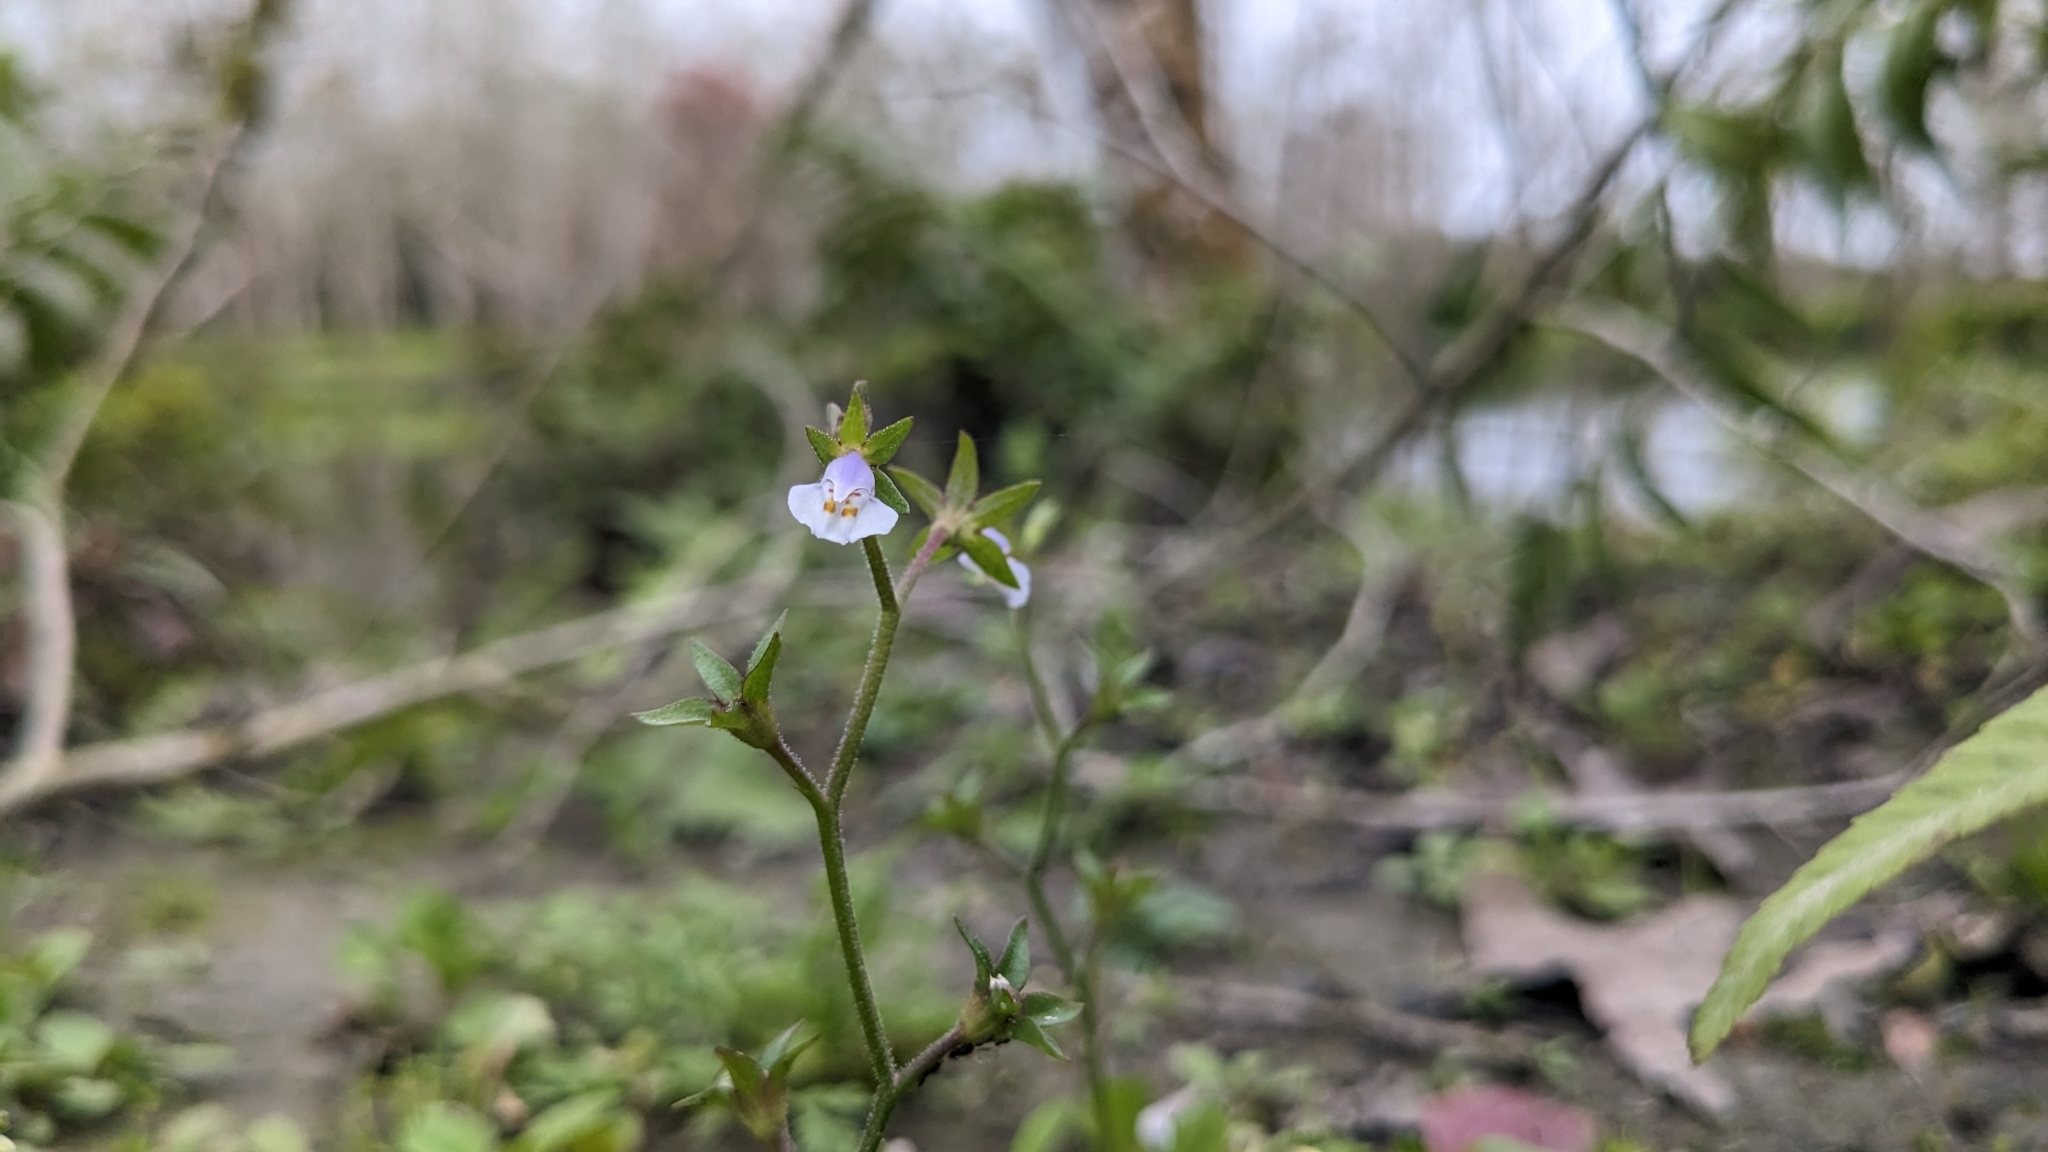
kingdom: Plantae
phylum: Tracheophyta
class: Magnoliopsida
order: Lamiales
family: Mazaceae
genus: Mazus
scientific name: Mazus pumilus
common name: Japanese mazus
